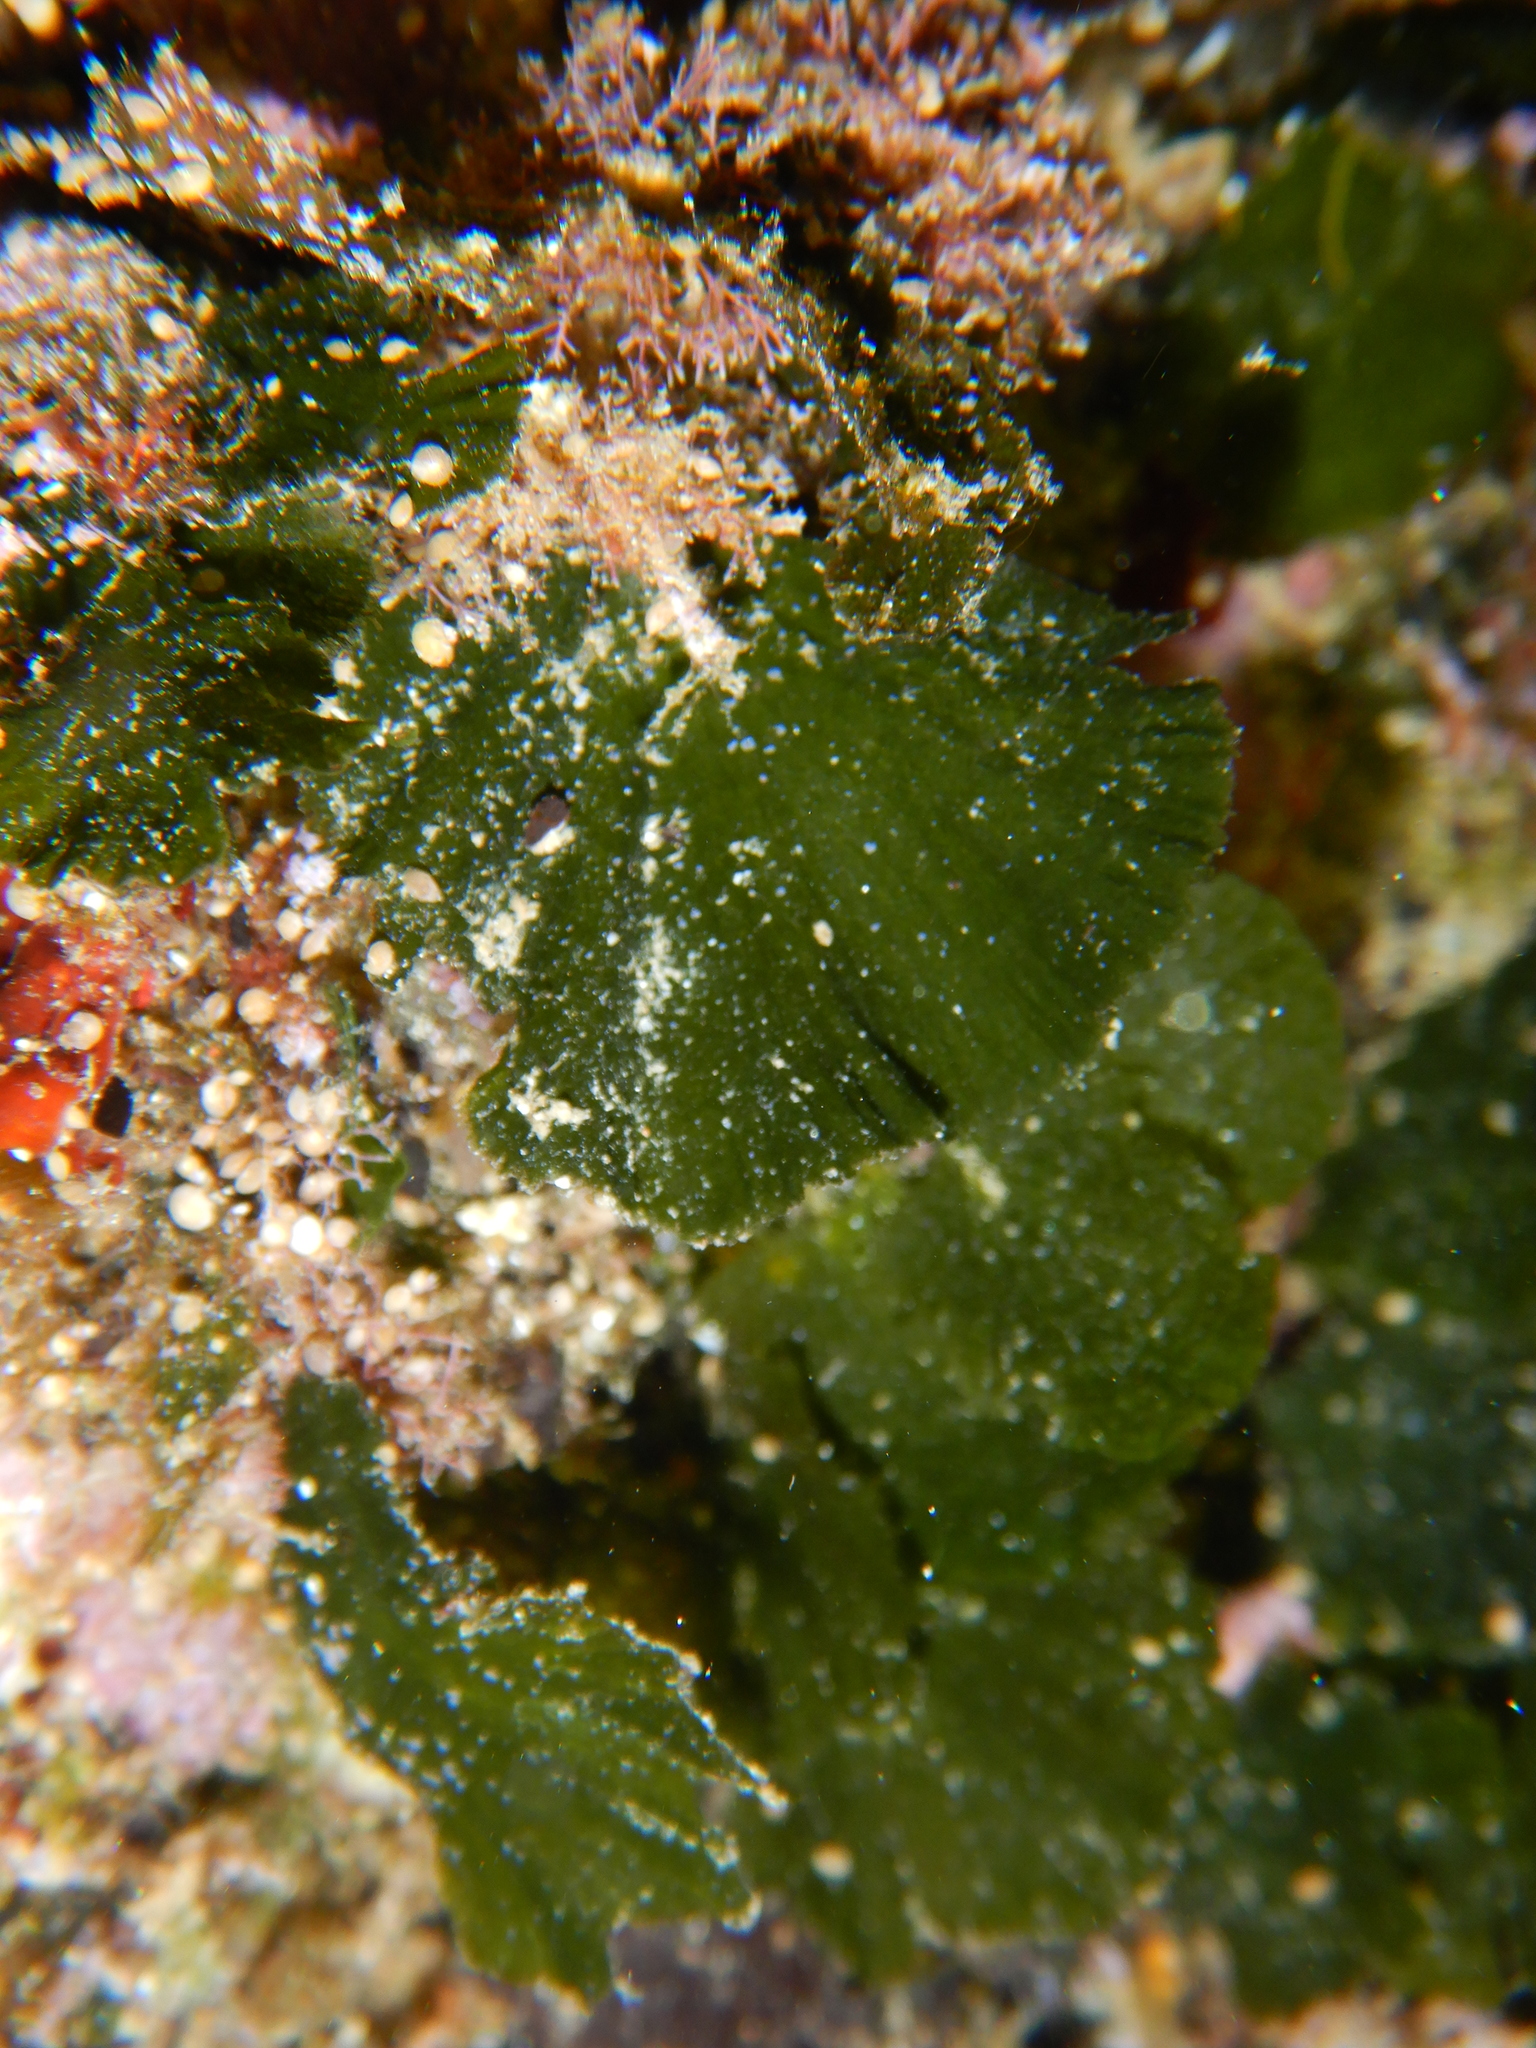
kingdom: Plantae
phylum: Chlorophyta
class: Ulvophyceae
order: Bryopsidales
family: Codiaceae
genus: Codium
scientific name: Codium Flabellia petiolata
